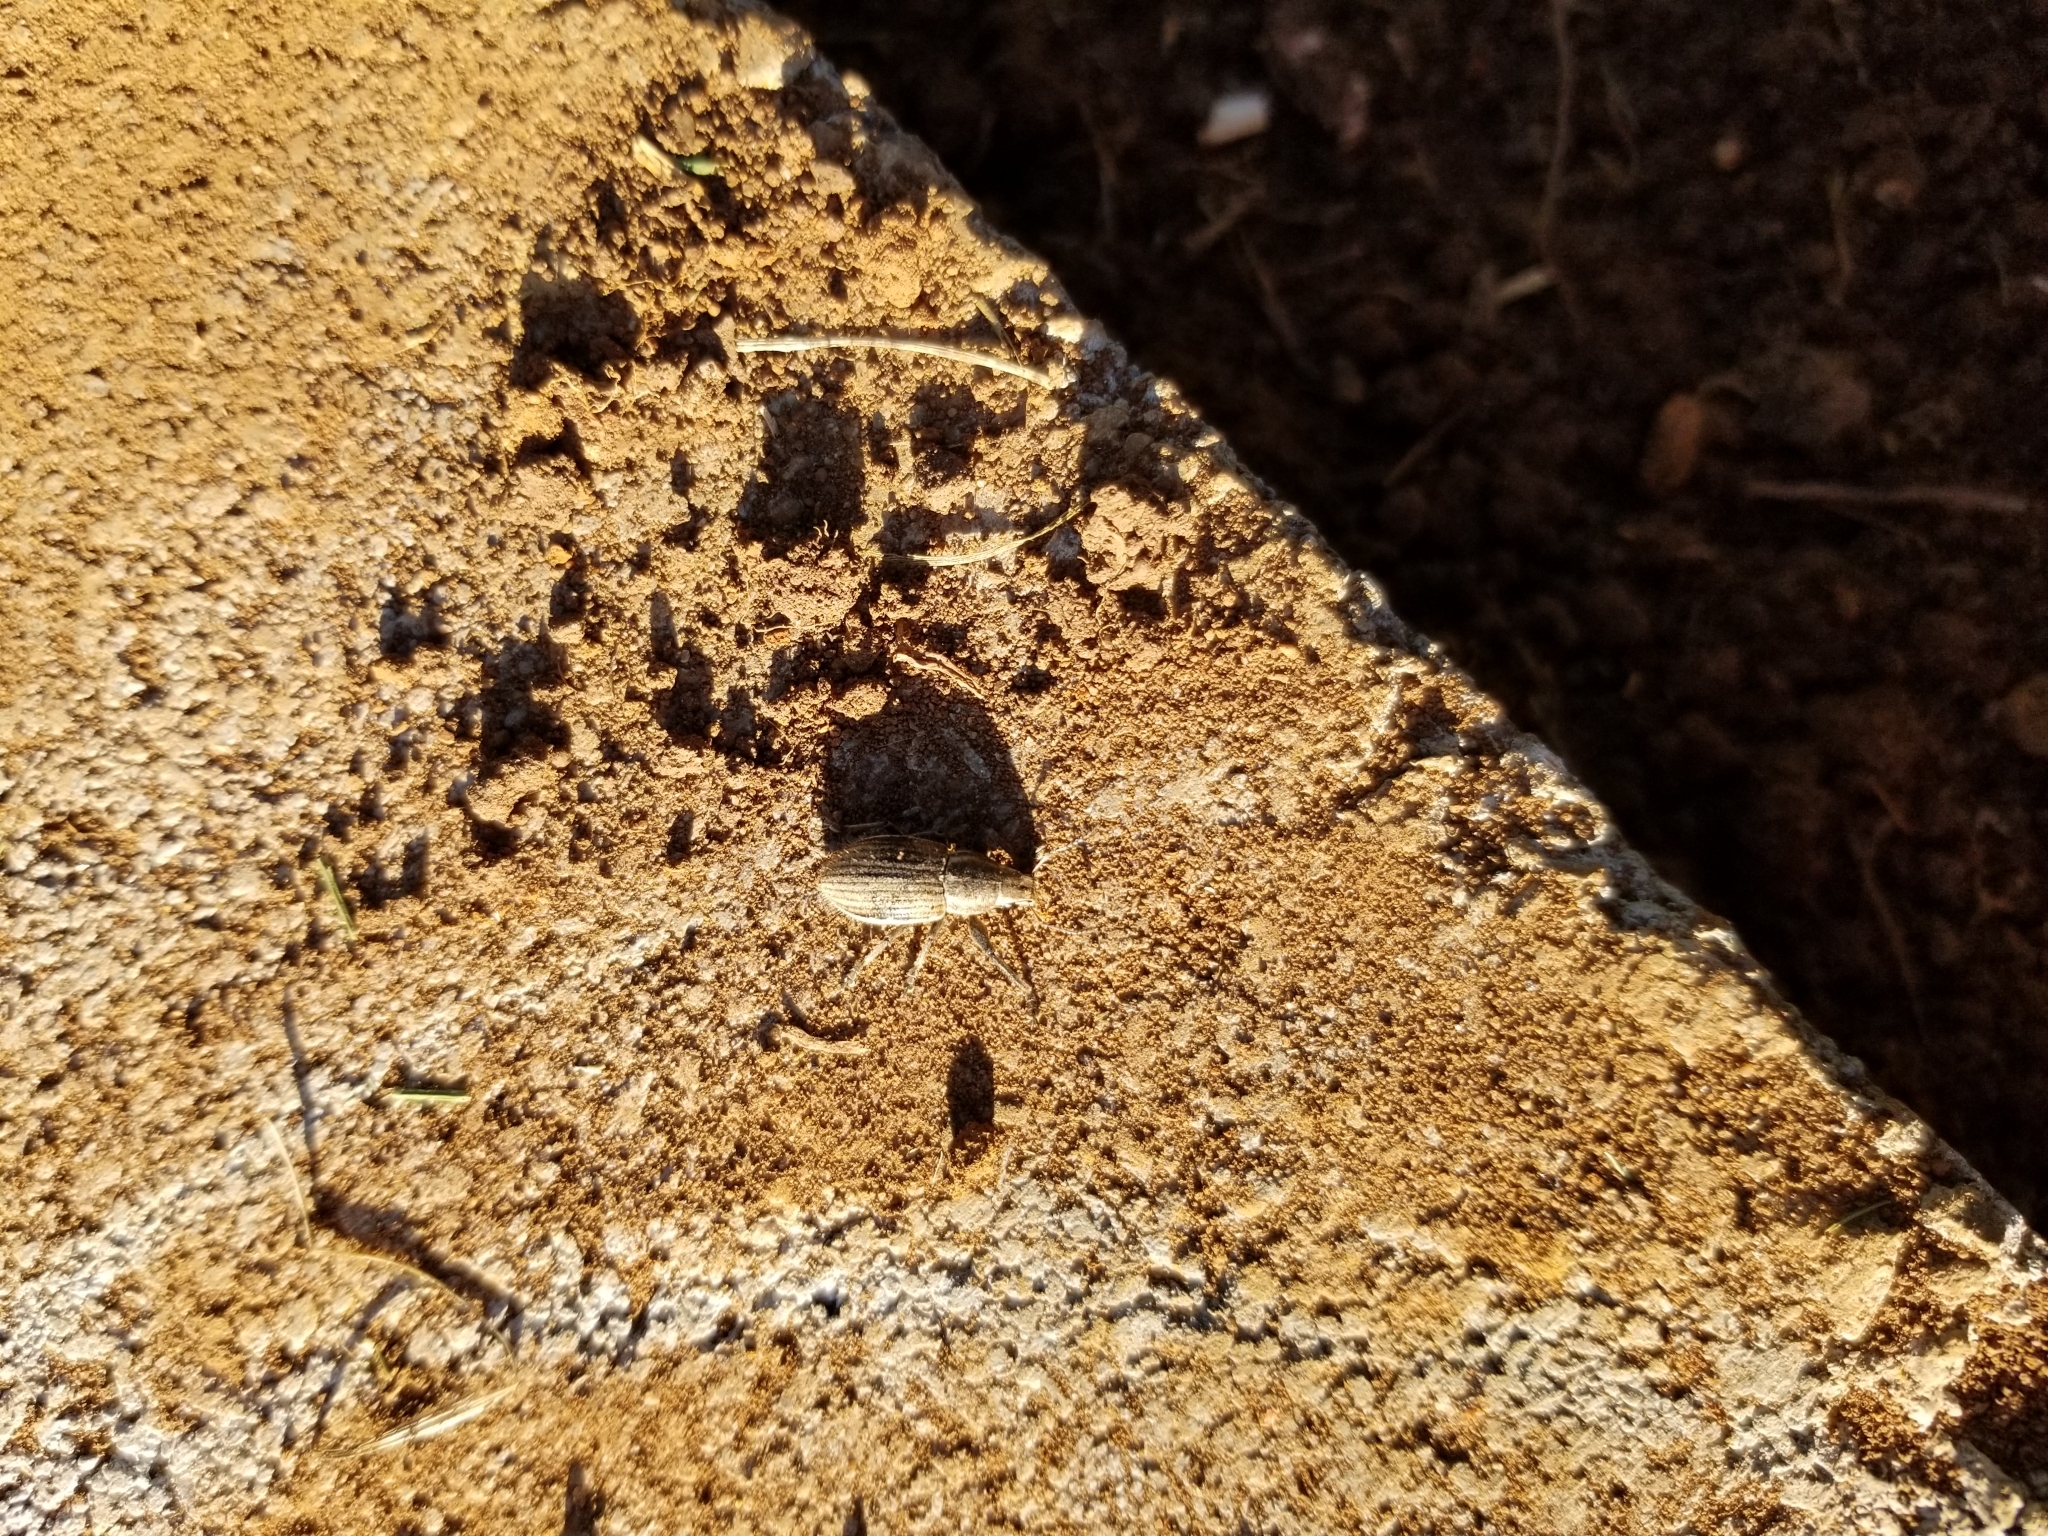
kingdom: Animalia
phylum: Arthropoda
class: Insecta
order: Coleoptera
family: Curculionidae
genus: Naupactus
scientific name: Naupactus leucoloma
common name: Whitefringed beetle
